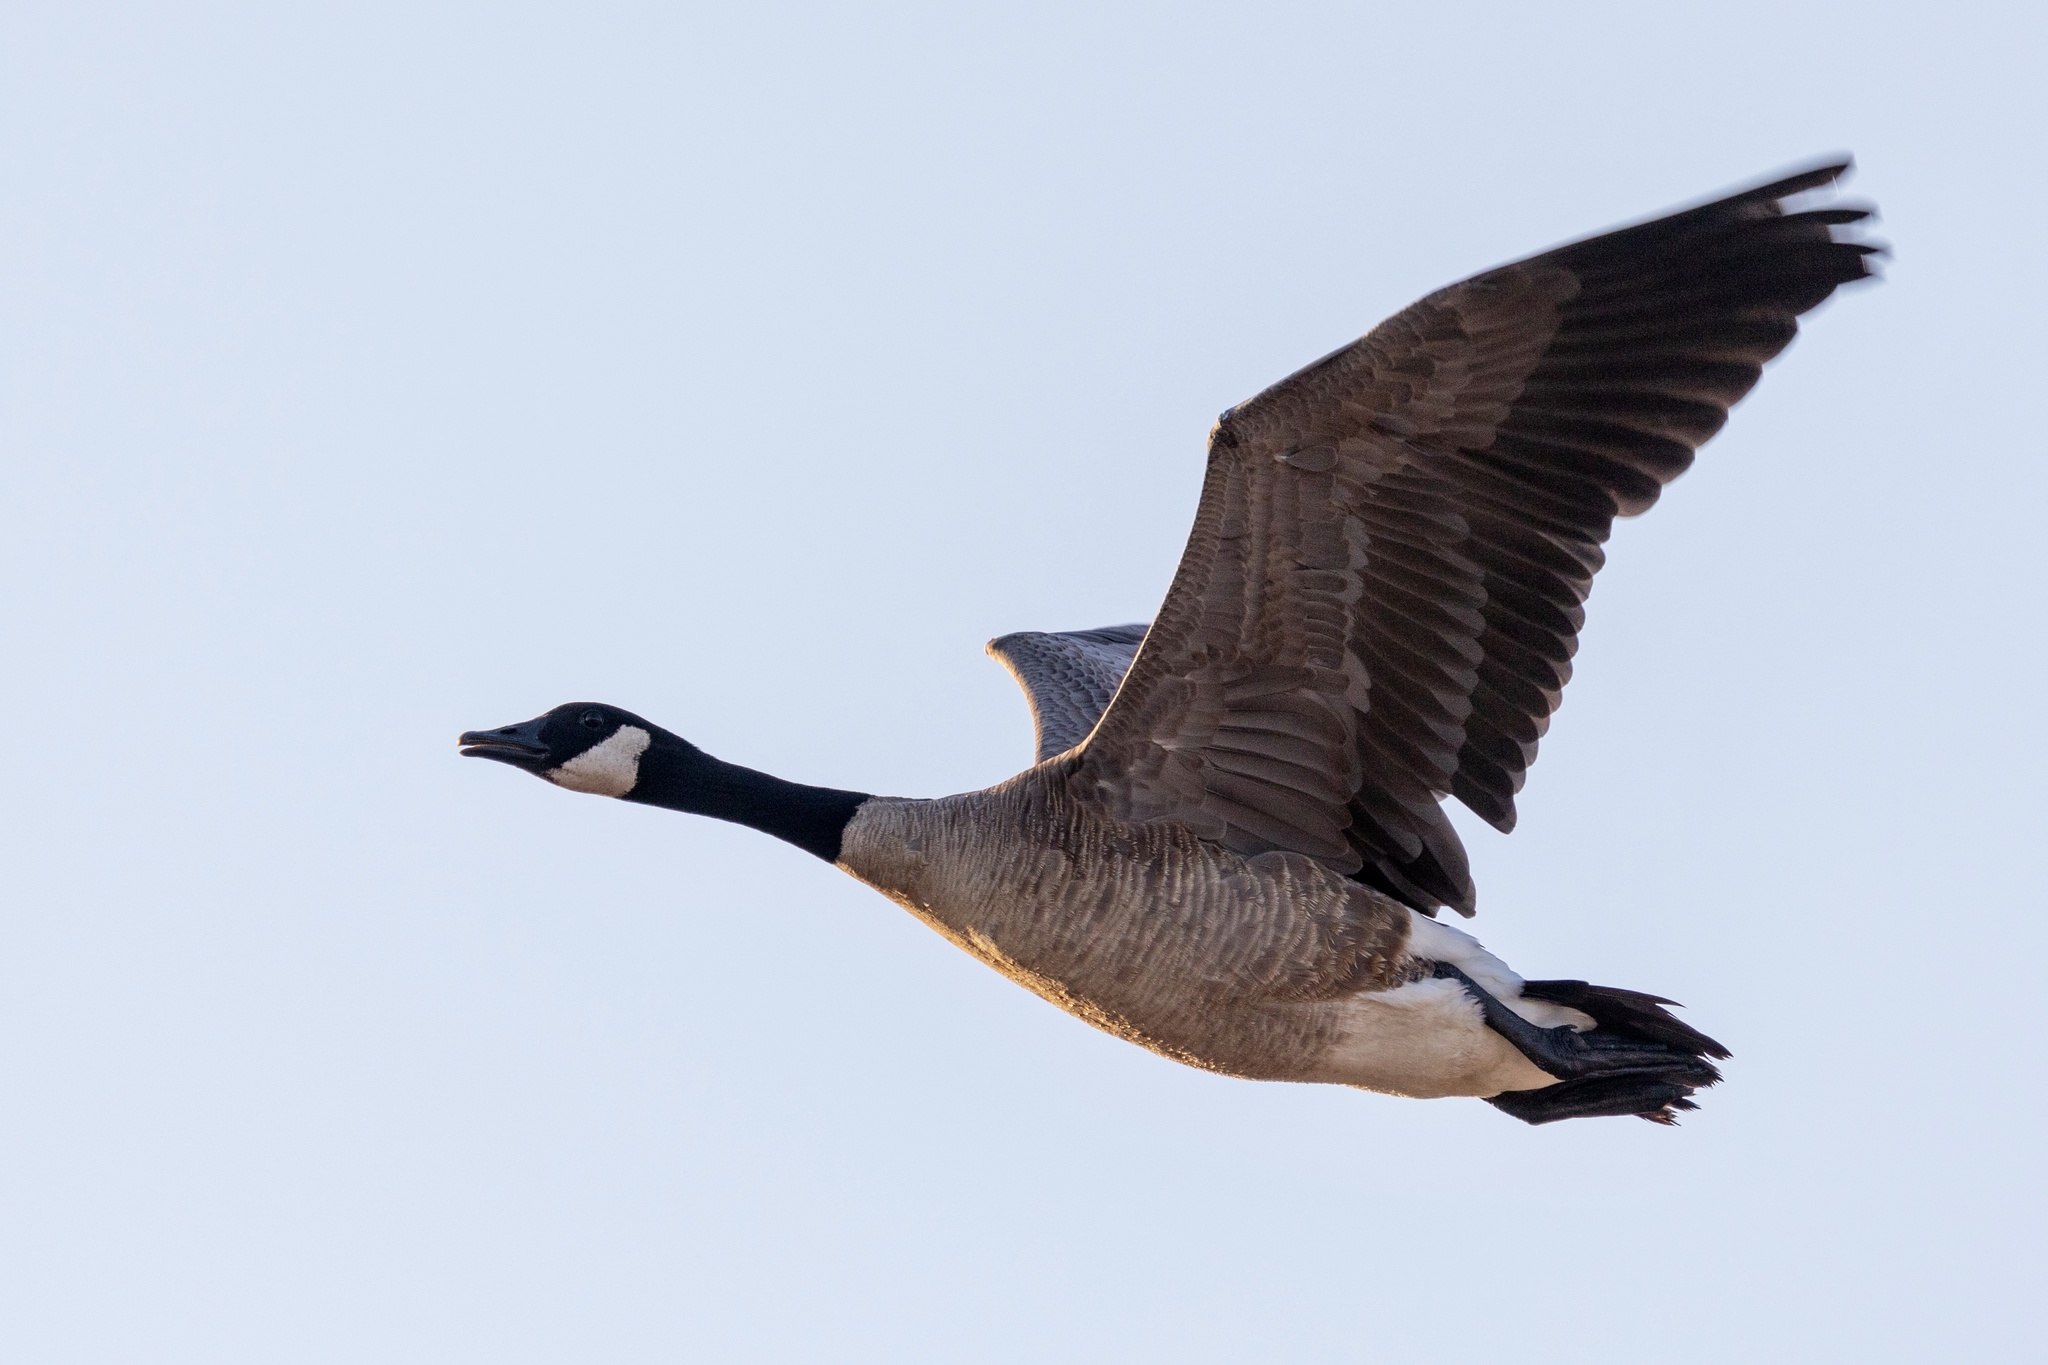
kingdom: Animalia
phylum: Chordata
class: Aves
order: Anseriformes
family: Anatidae
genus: Branta
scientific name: Branta canadensis
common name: Canada goose
